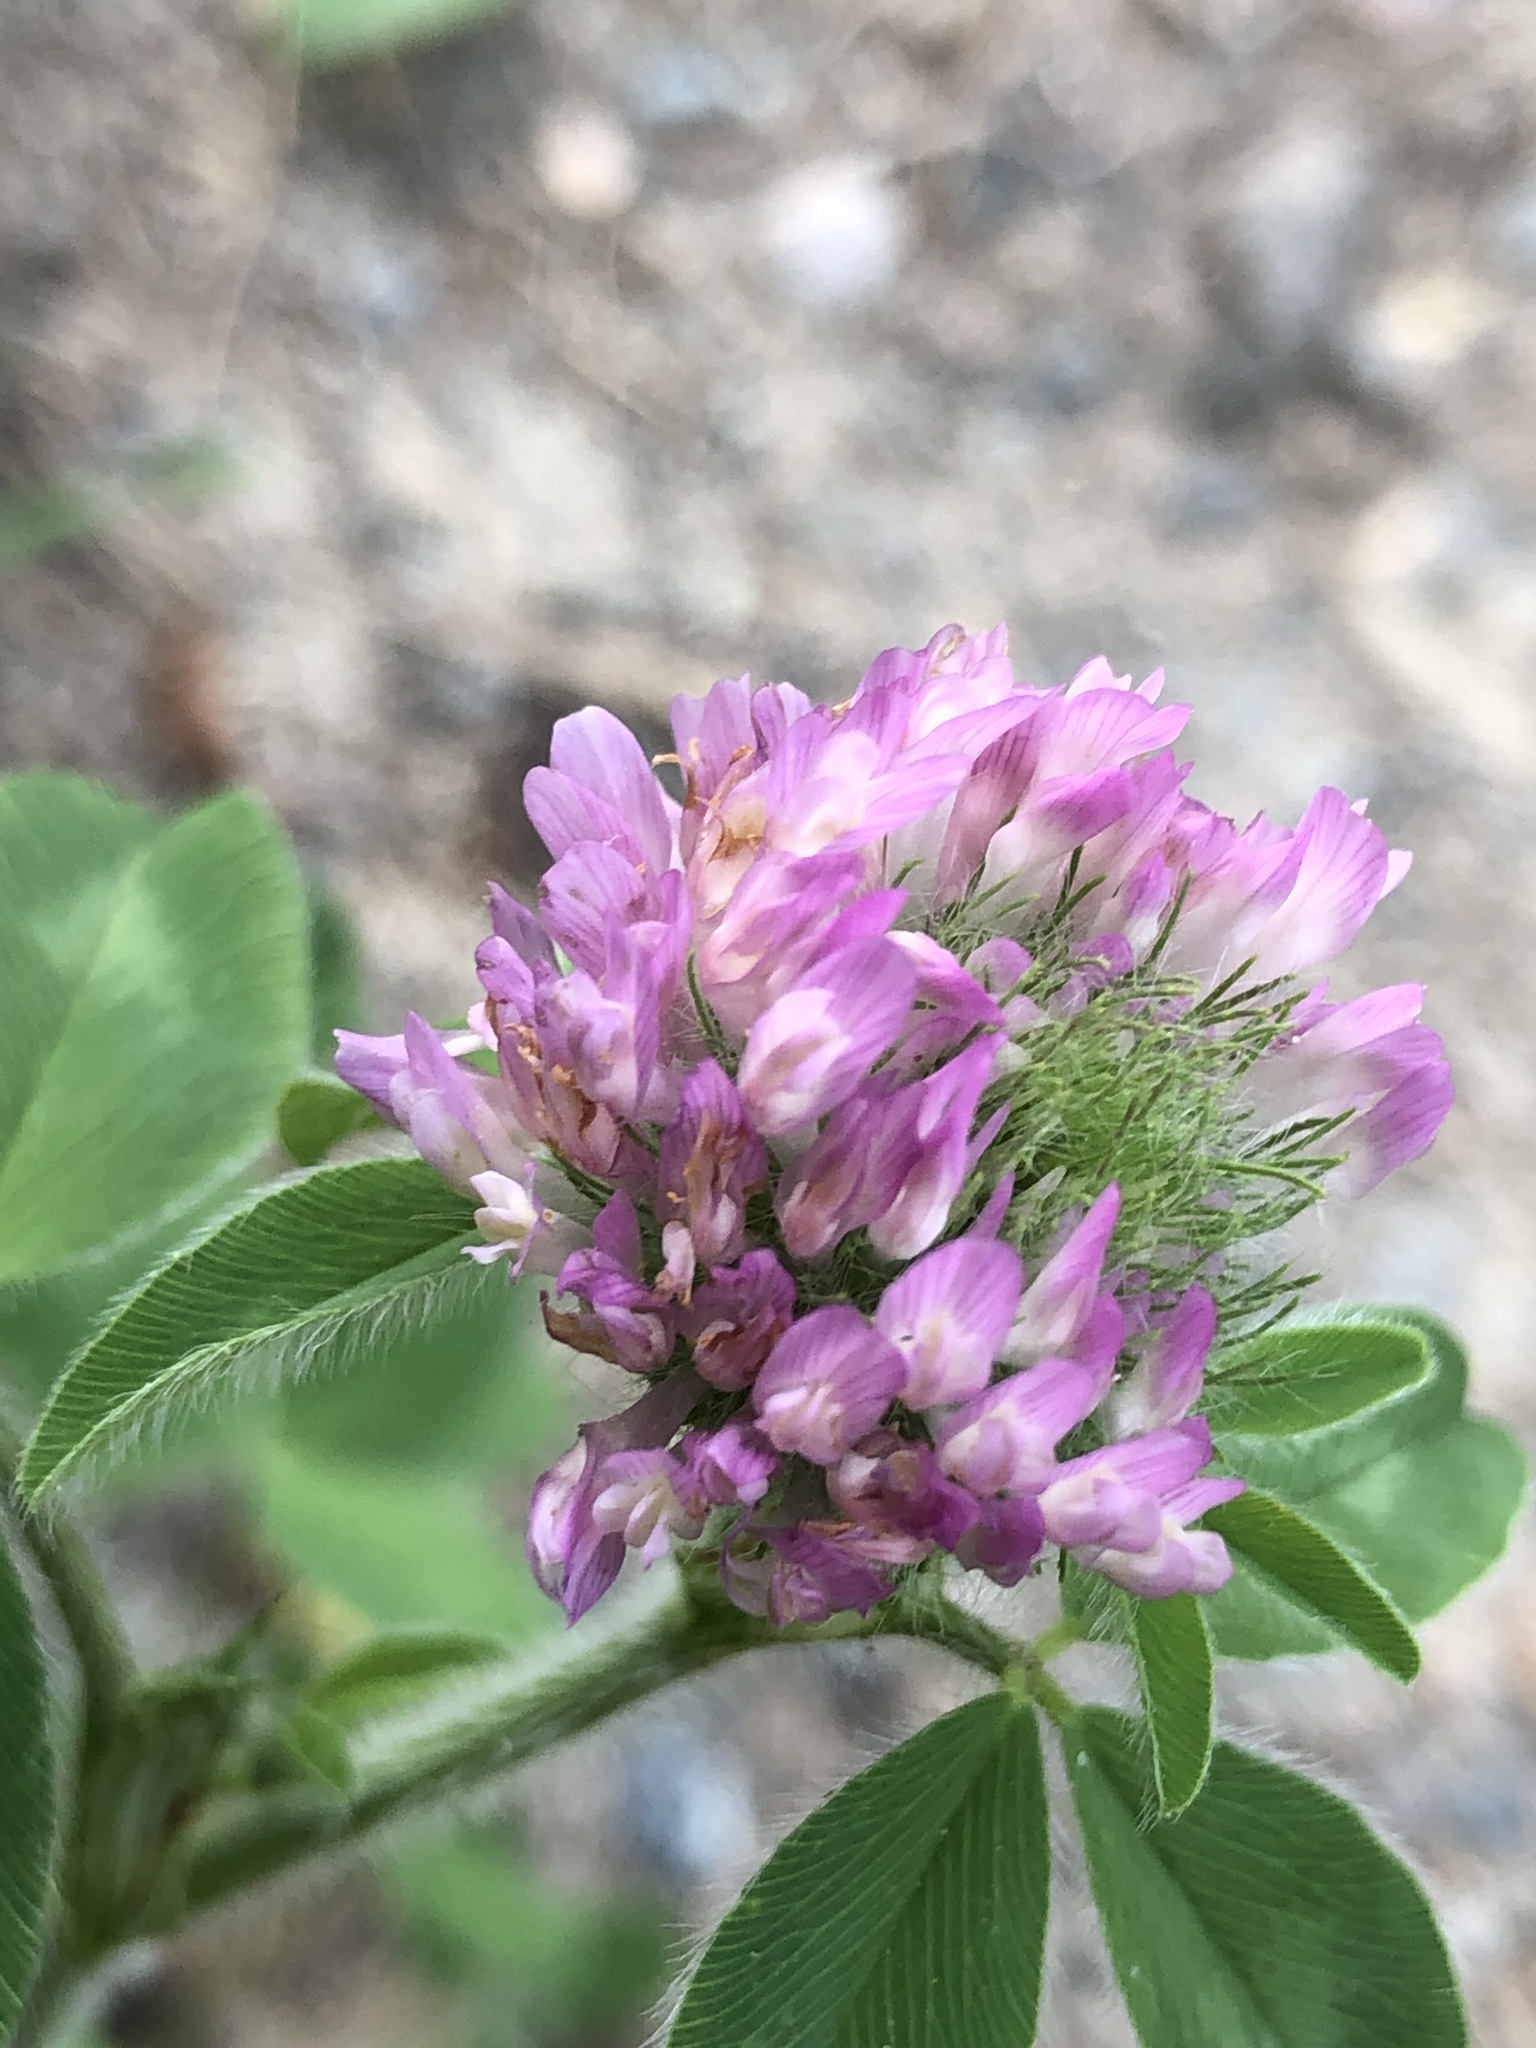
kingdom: Plantae
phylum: Tracheophyta
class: Magnoliopsida
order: Fabales
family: Fabaceae
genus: Trifolium
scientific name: Trifolium pratense
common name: Red clover
